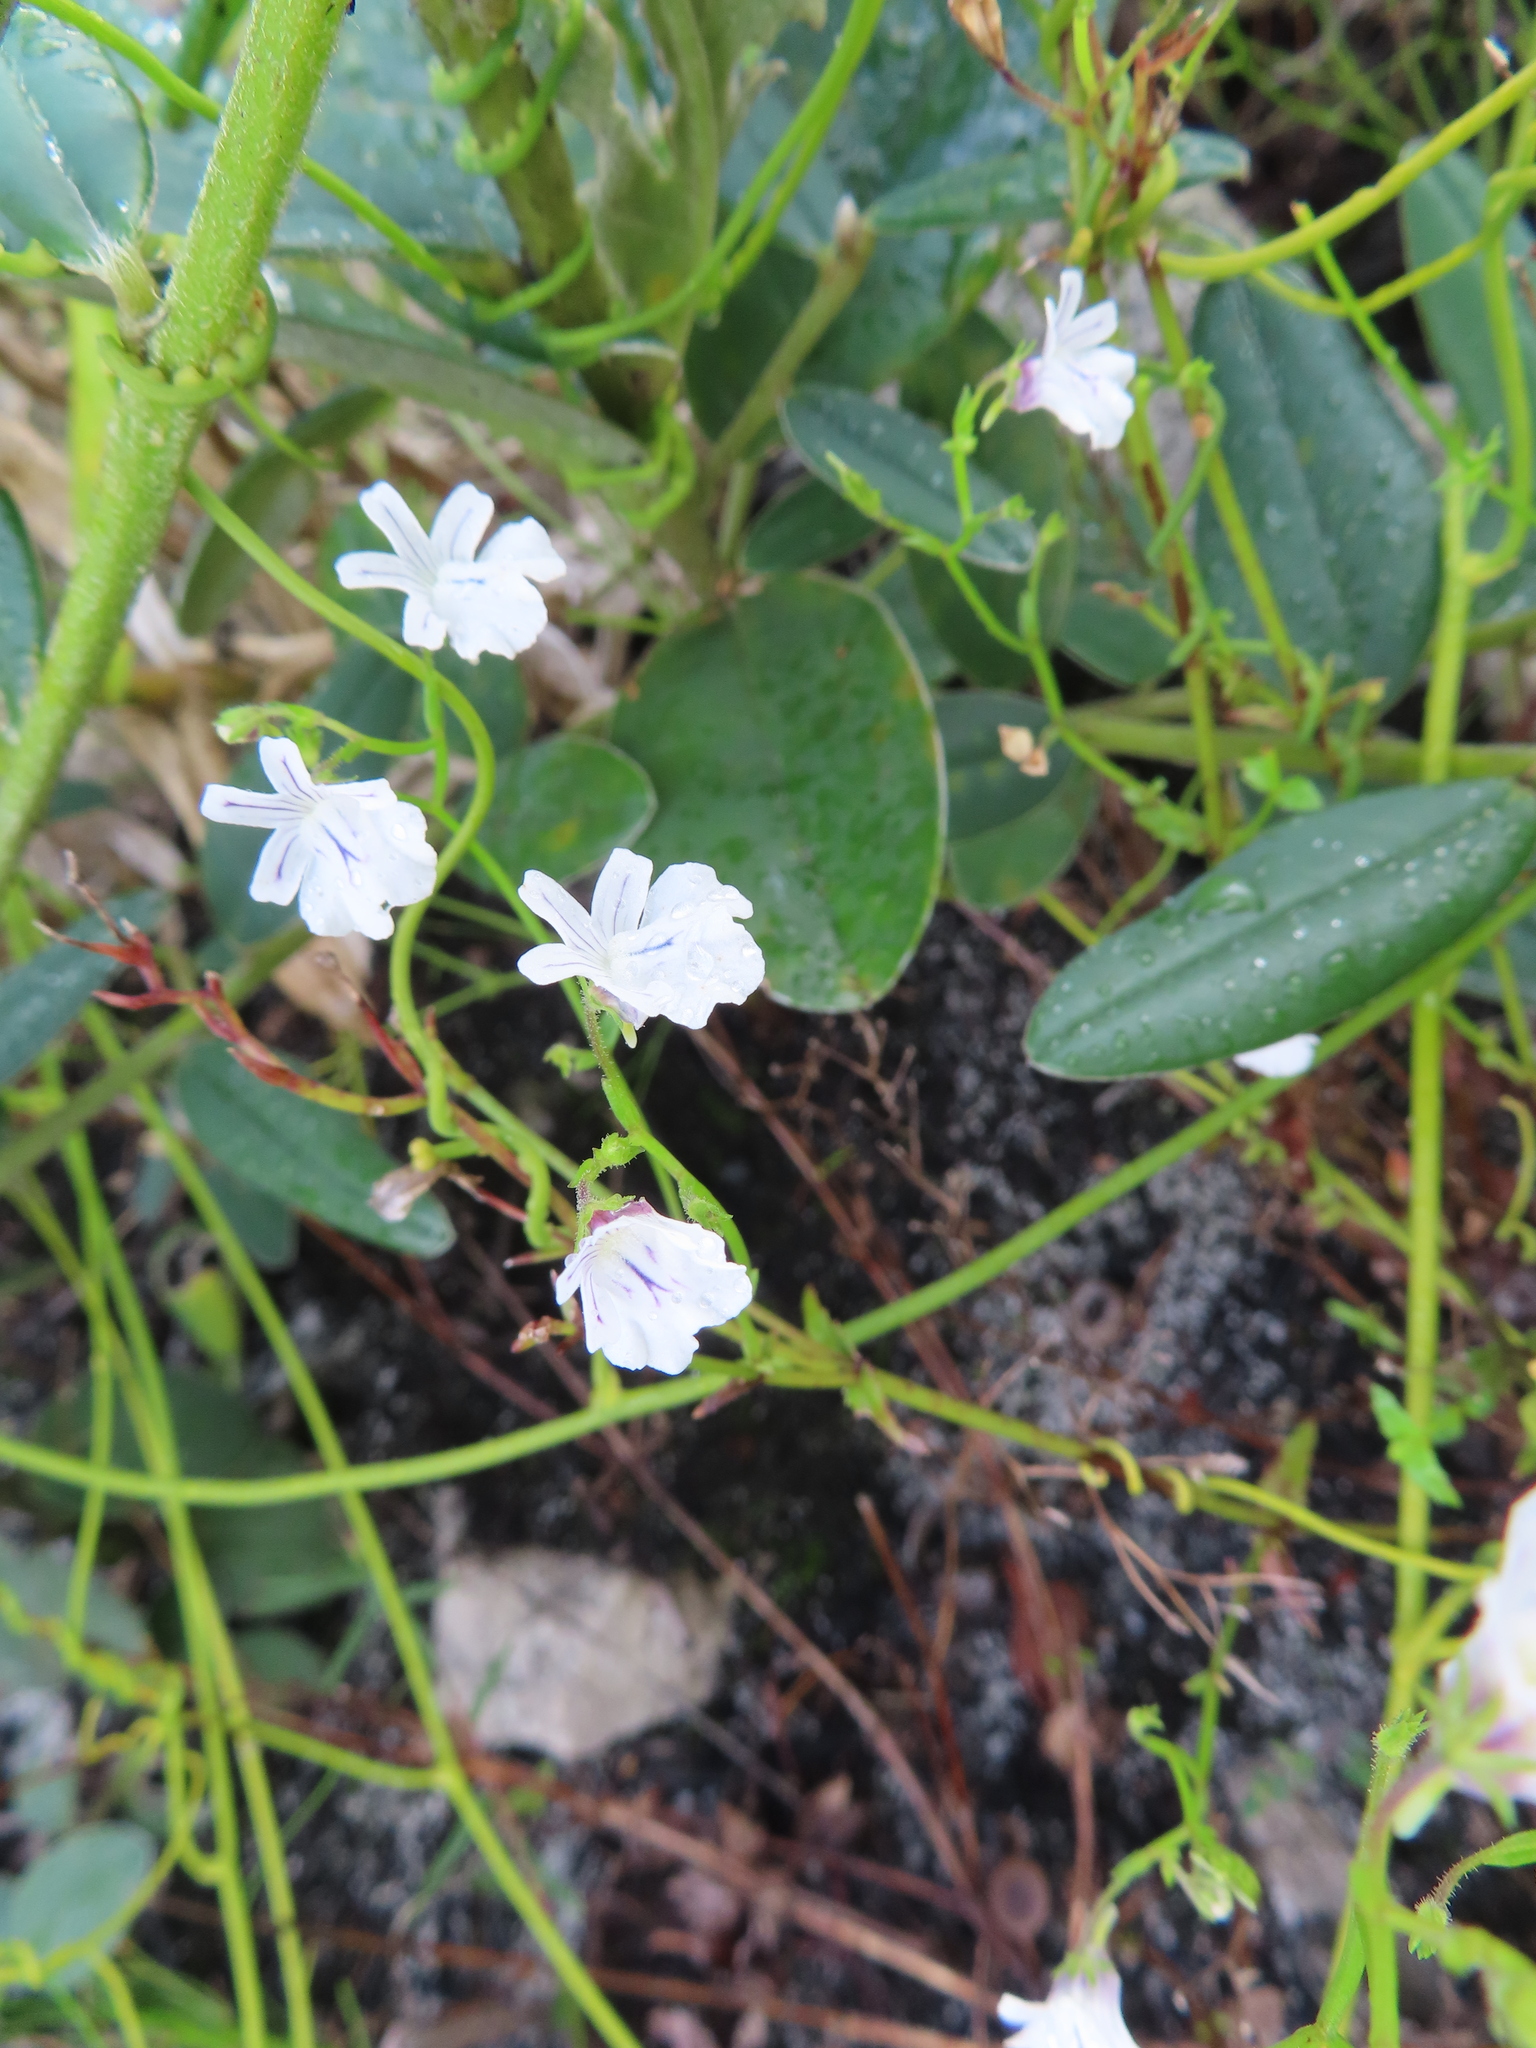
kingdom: Plantae
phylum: Tracheophyta
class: Magnoliopsida
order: Lamiales
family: Scrophulariaceae
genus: Nemesia
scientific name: Nemesia diffusa
